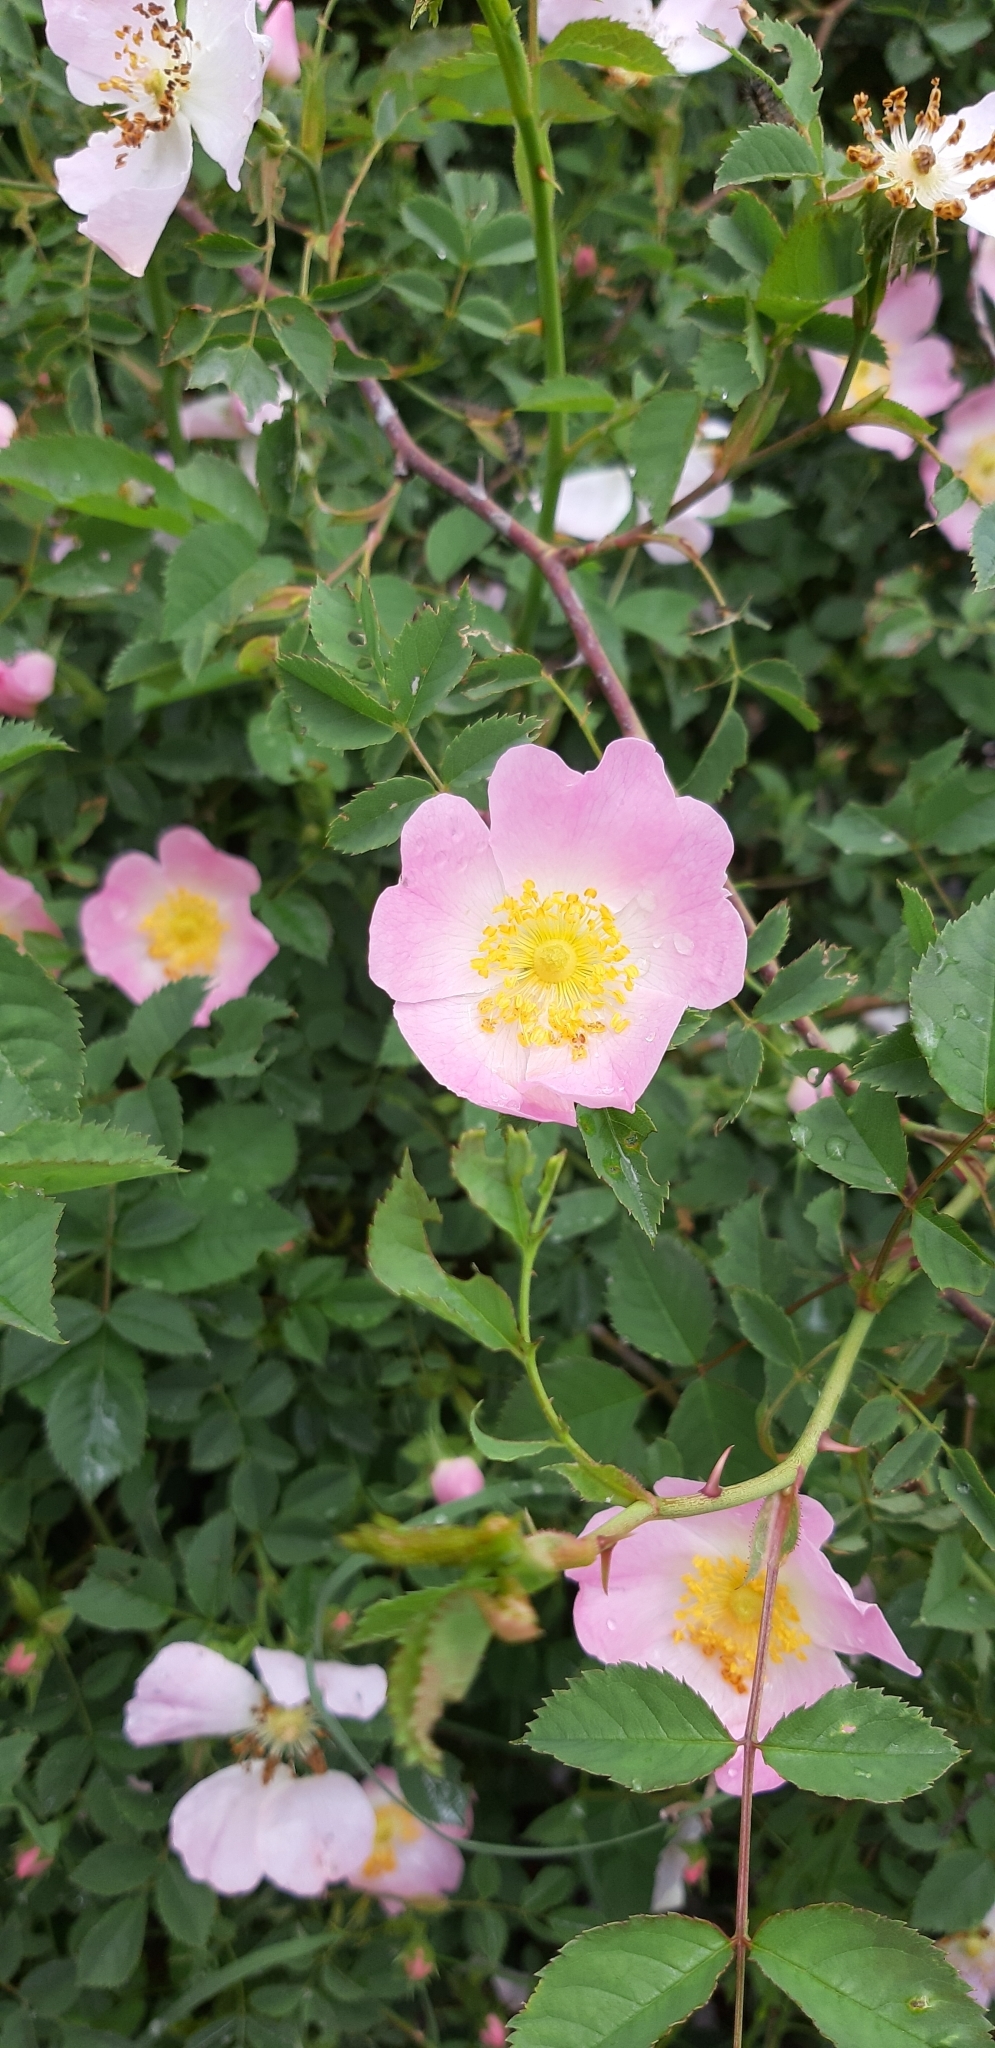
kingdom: Plantae
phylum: Tracheophyta
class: Magnoliopsida
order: Rosales
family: Rosaceae
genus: Rosa
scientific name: Rosa canina
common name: Dog rose
